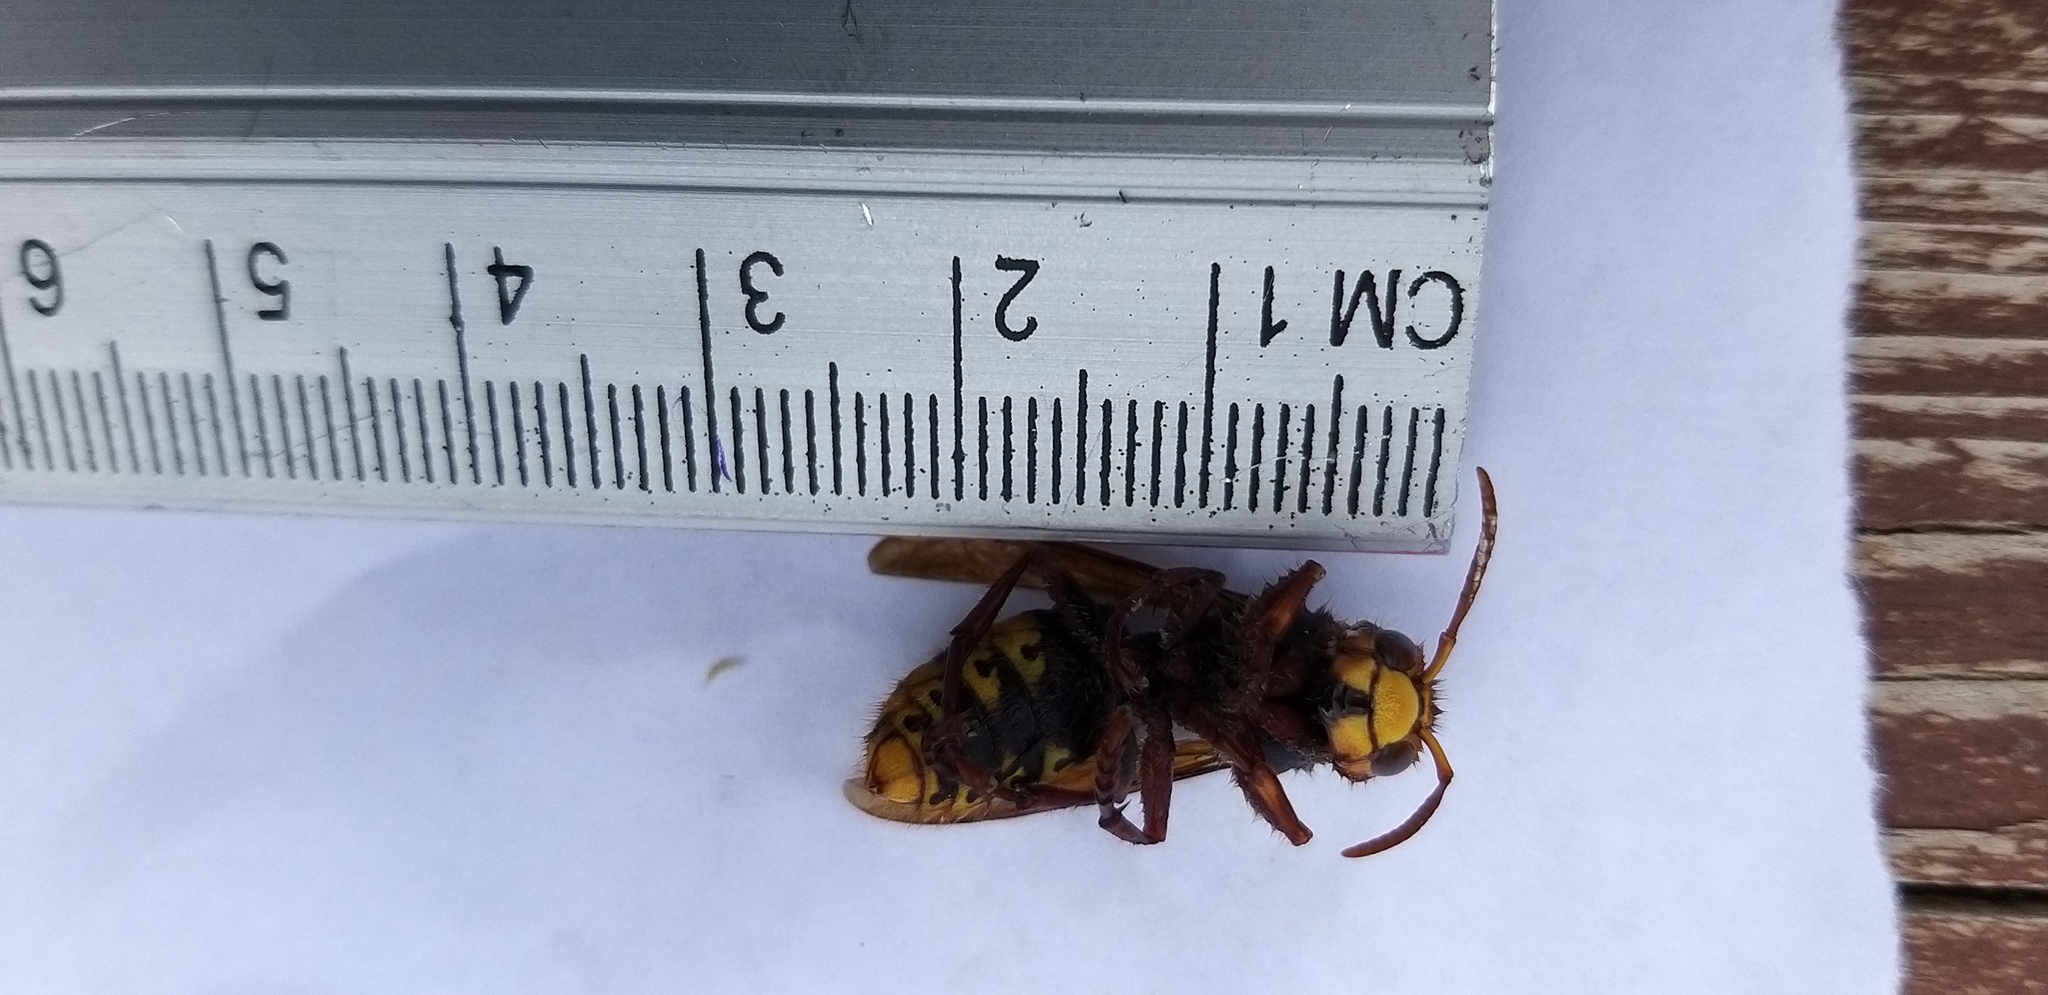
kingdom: Animalia
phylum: Arthropoda
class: Insecta
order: Hymenoptera
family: Vespidae
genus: Vespa
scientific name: Vespa crabro
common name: Hornet
